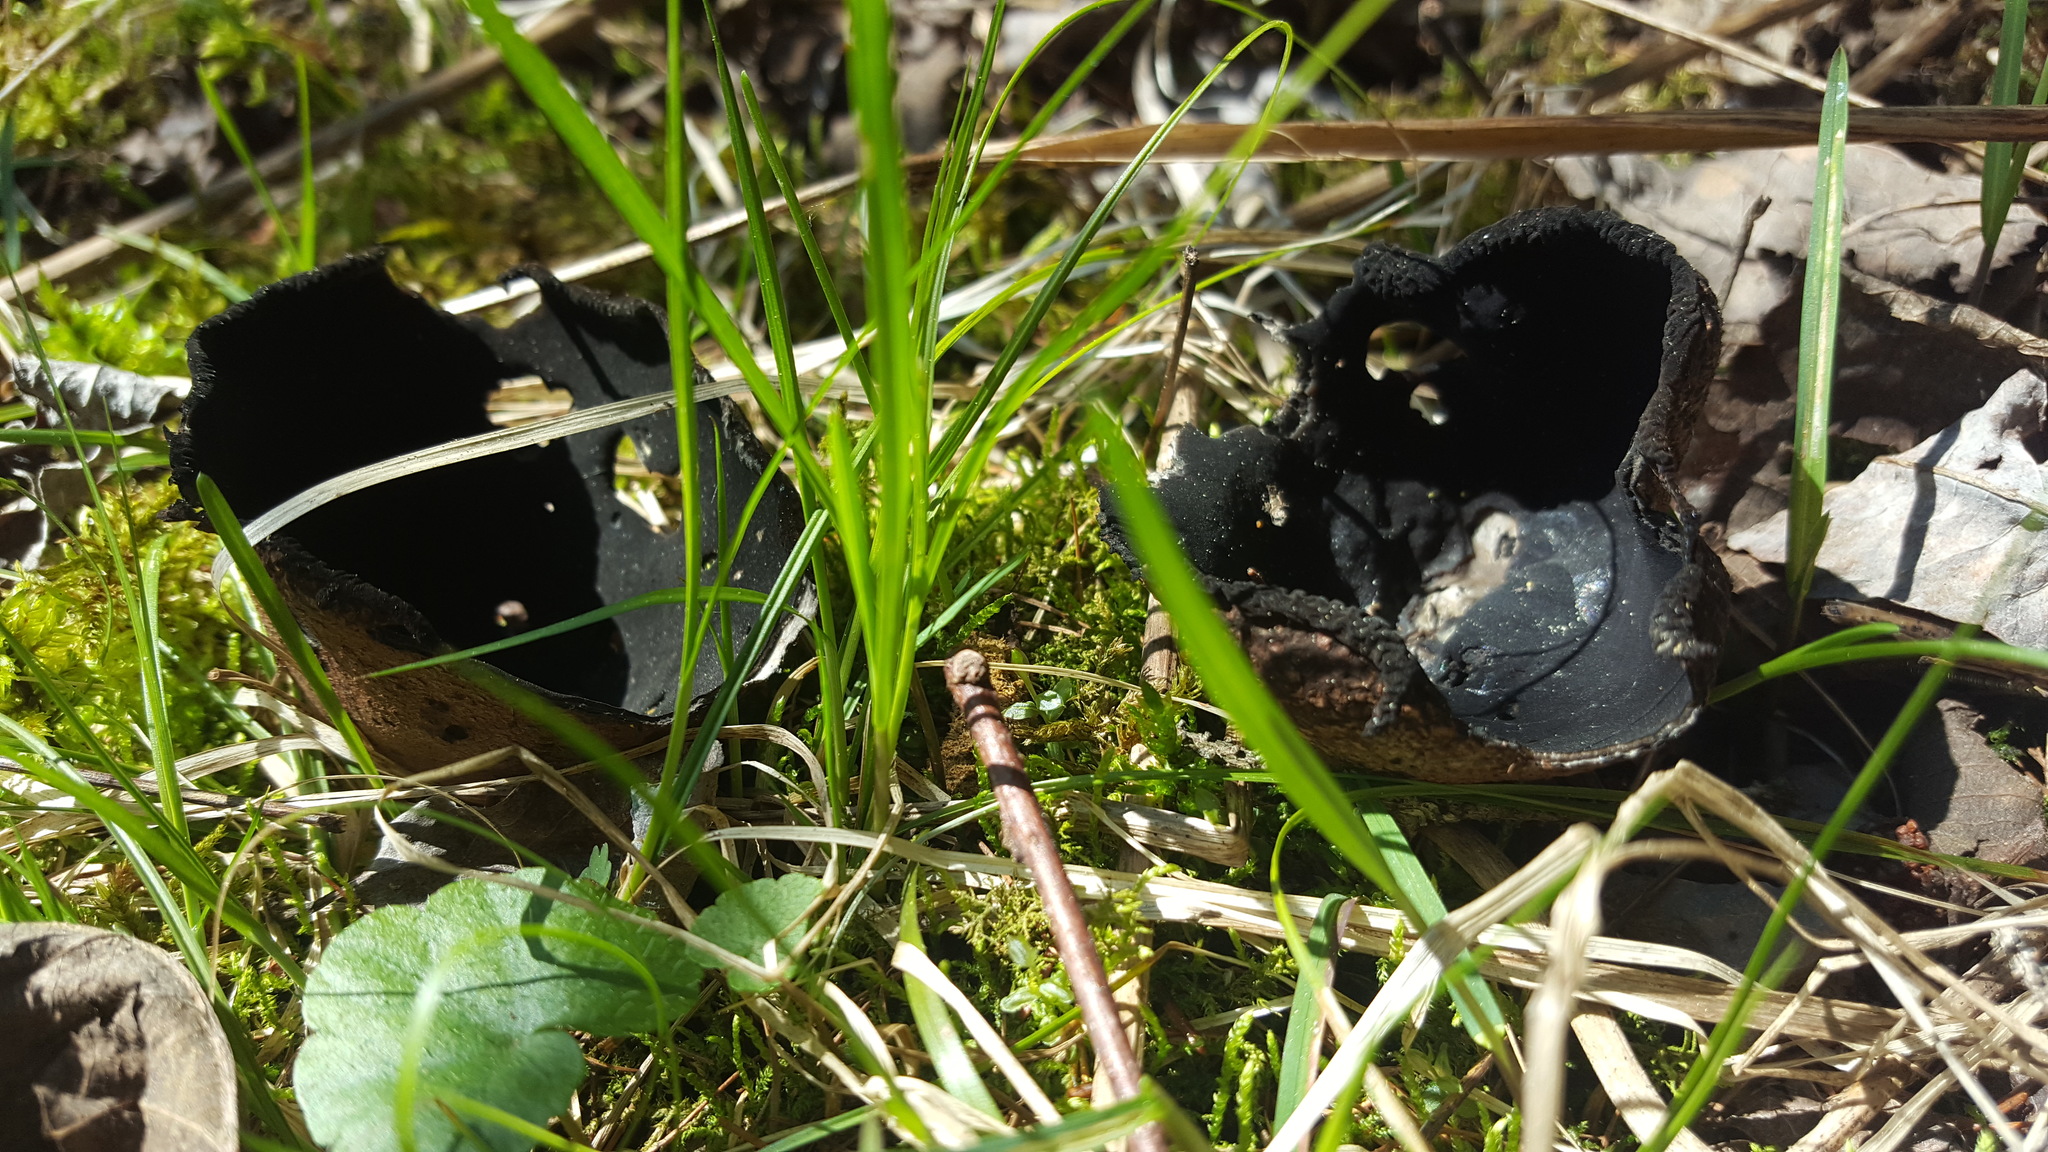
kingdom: Fungi
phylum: Ascomycota
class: Pezizomycetes
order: Pezizales
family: Sarcosomataceae
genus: Urnula
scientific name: Urnula craterium
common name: Devil's urn
